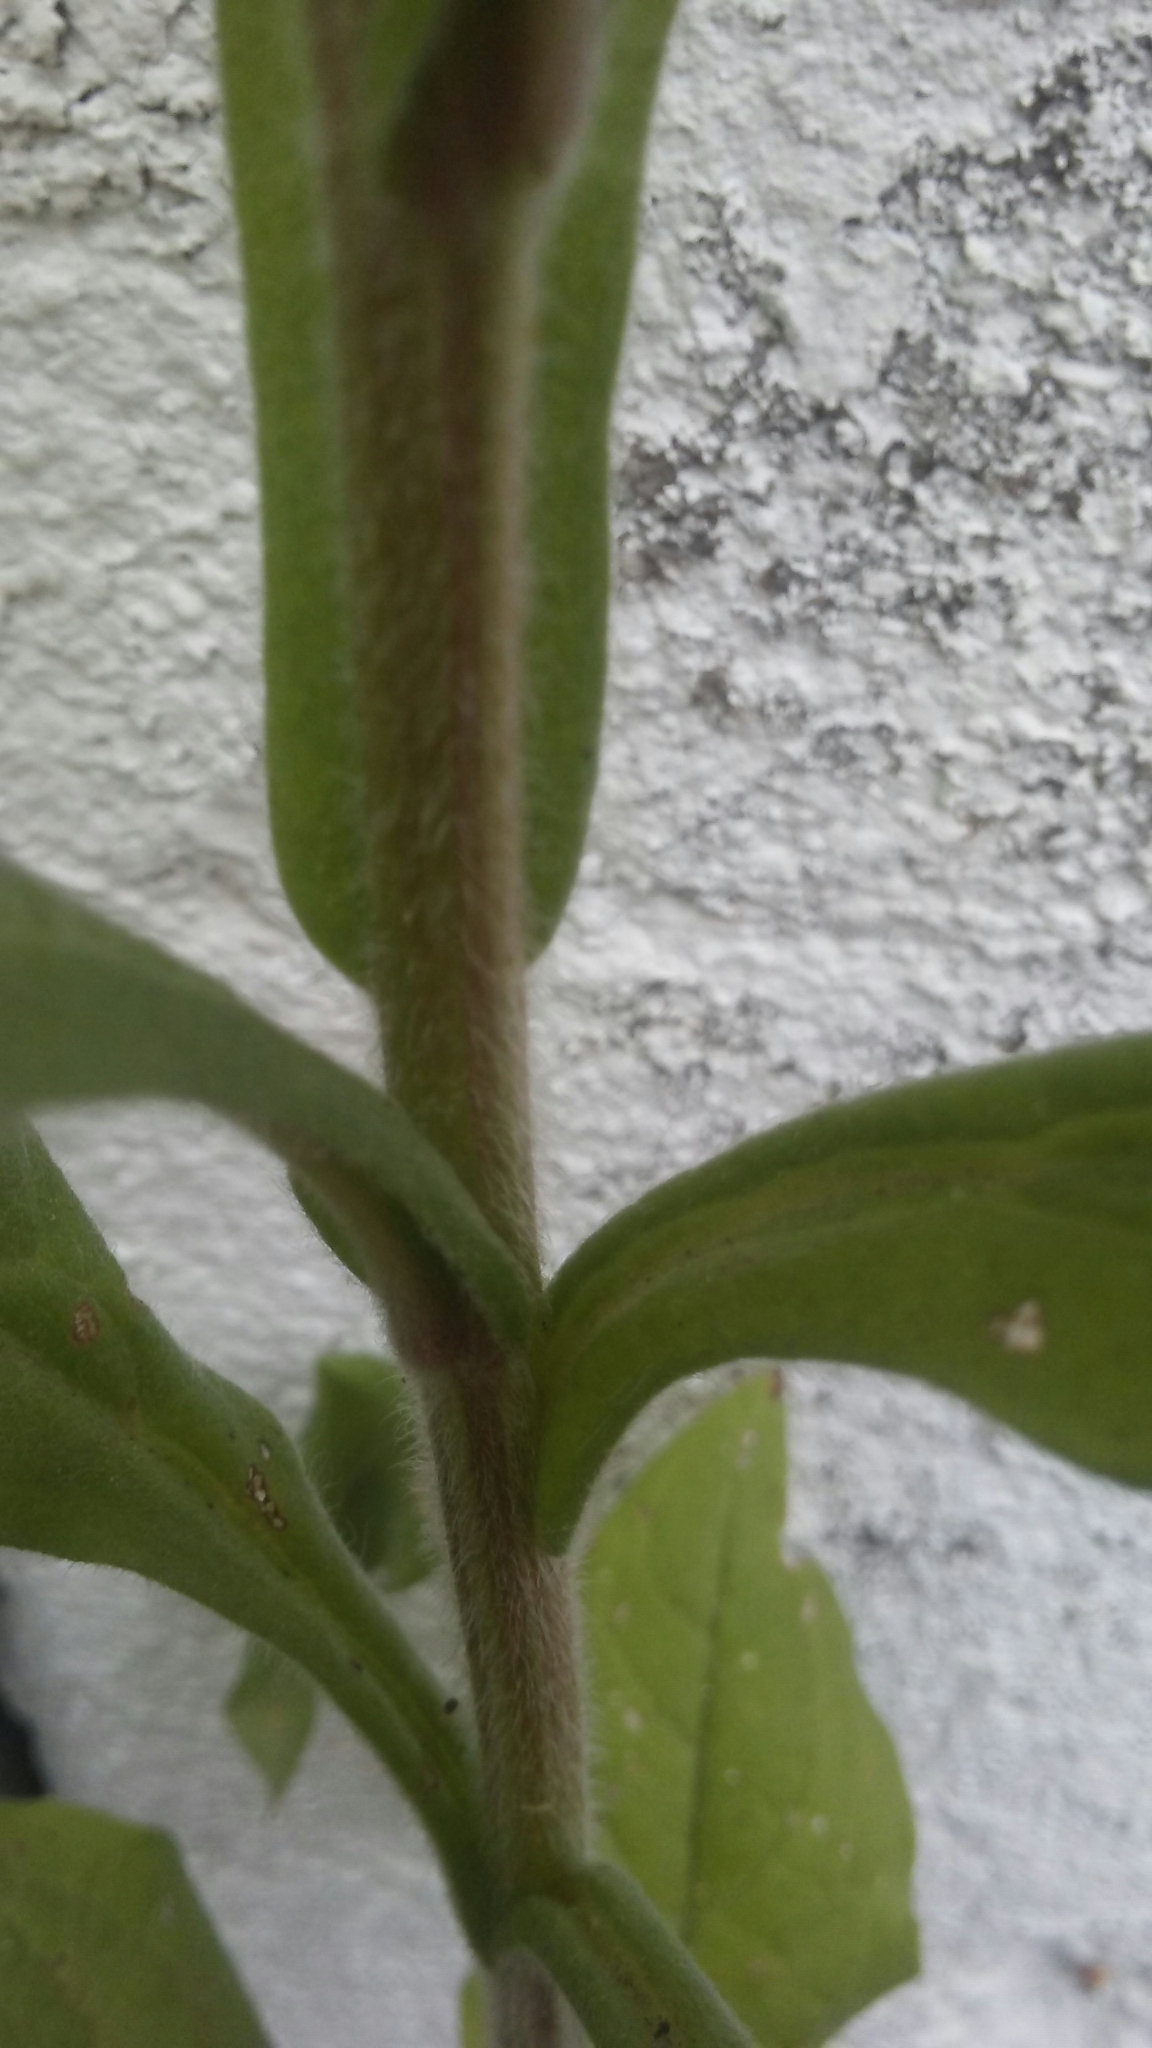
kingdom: Plantae
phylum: Tracheophyta
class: Magnoliopsida
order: Boraginales
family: Boraginaceae
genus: Cynoglossum
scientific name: Cynoglossum officinale
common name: Hound's-tongue
